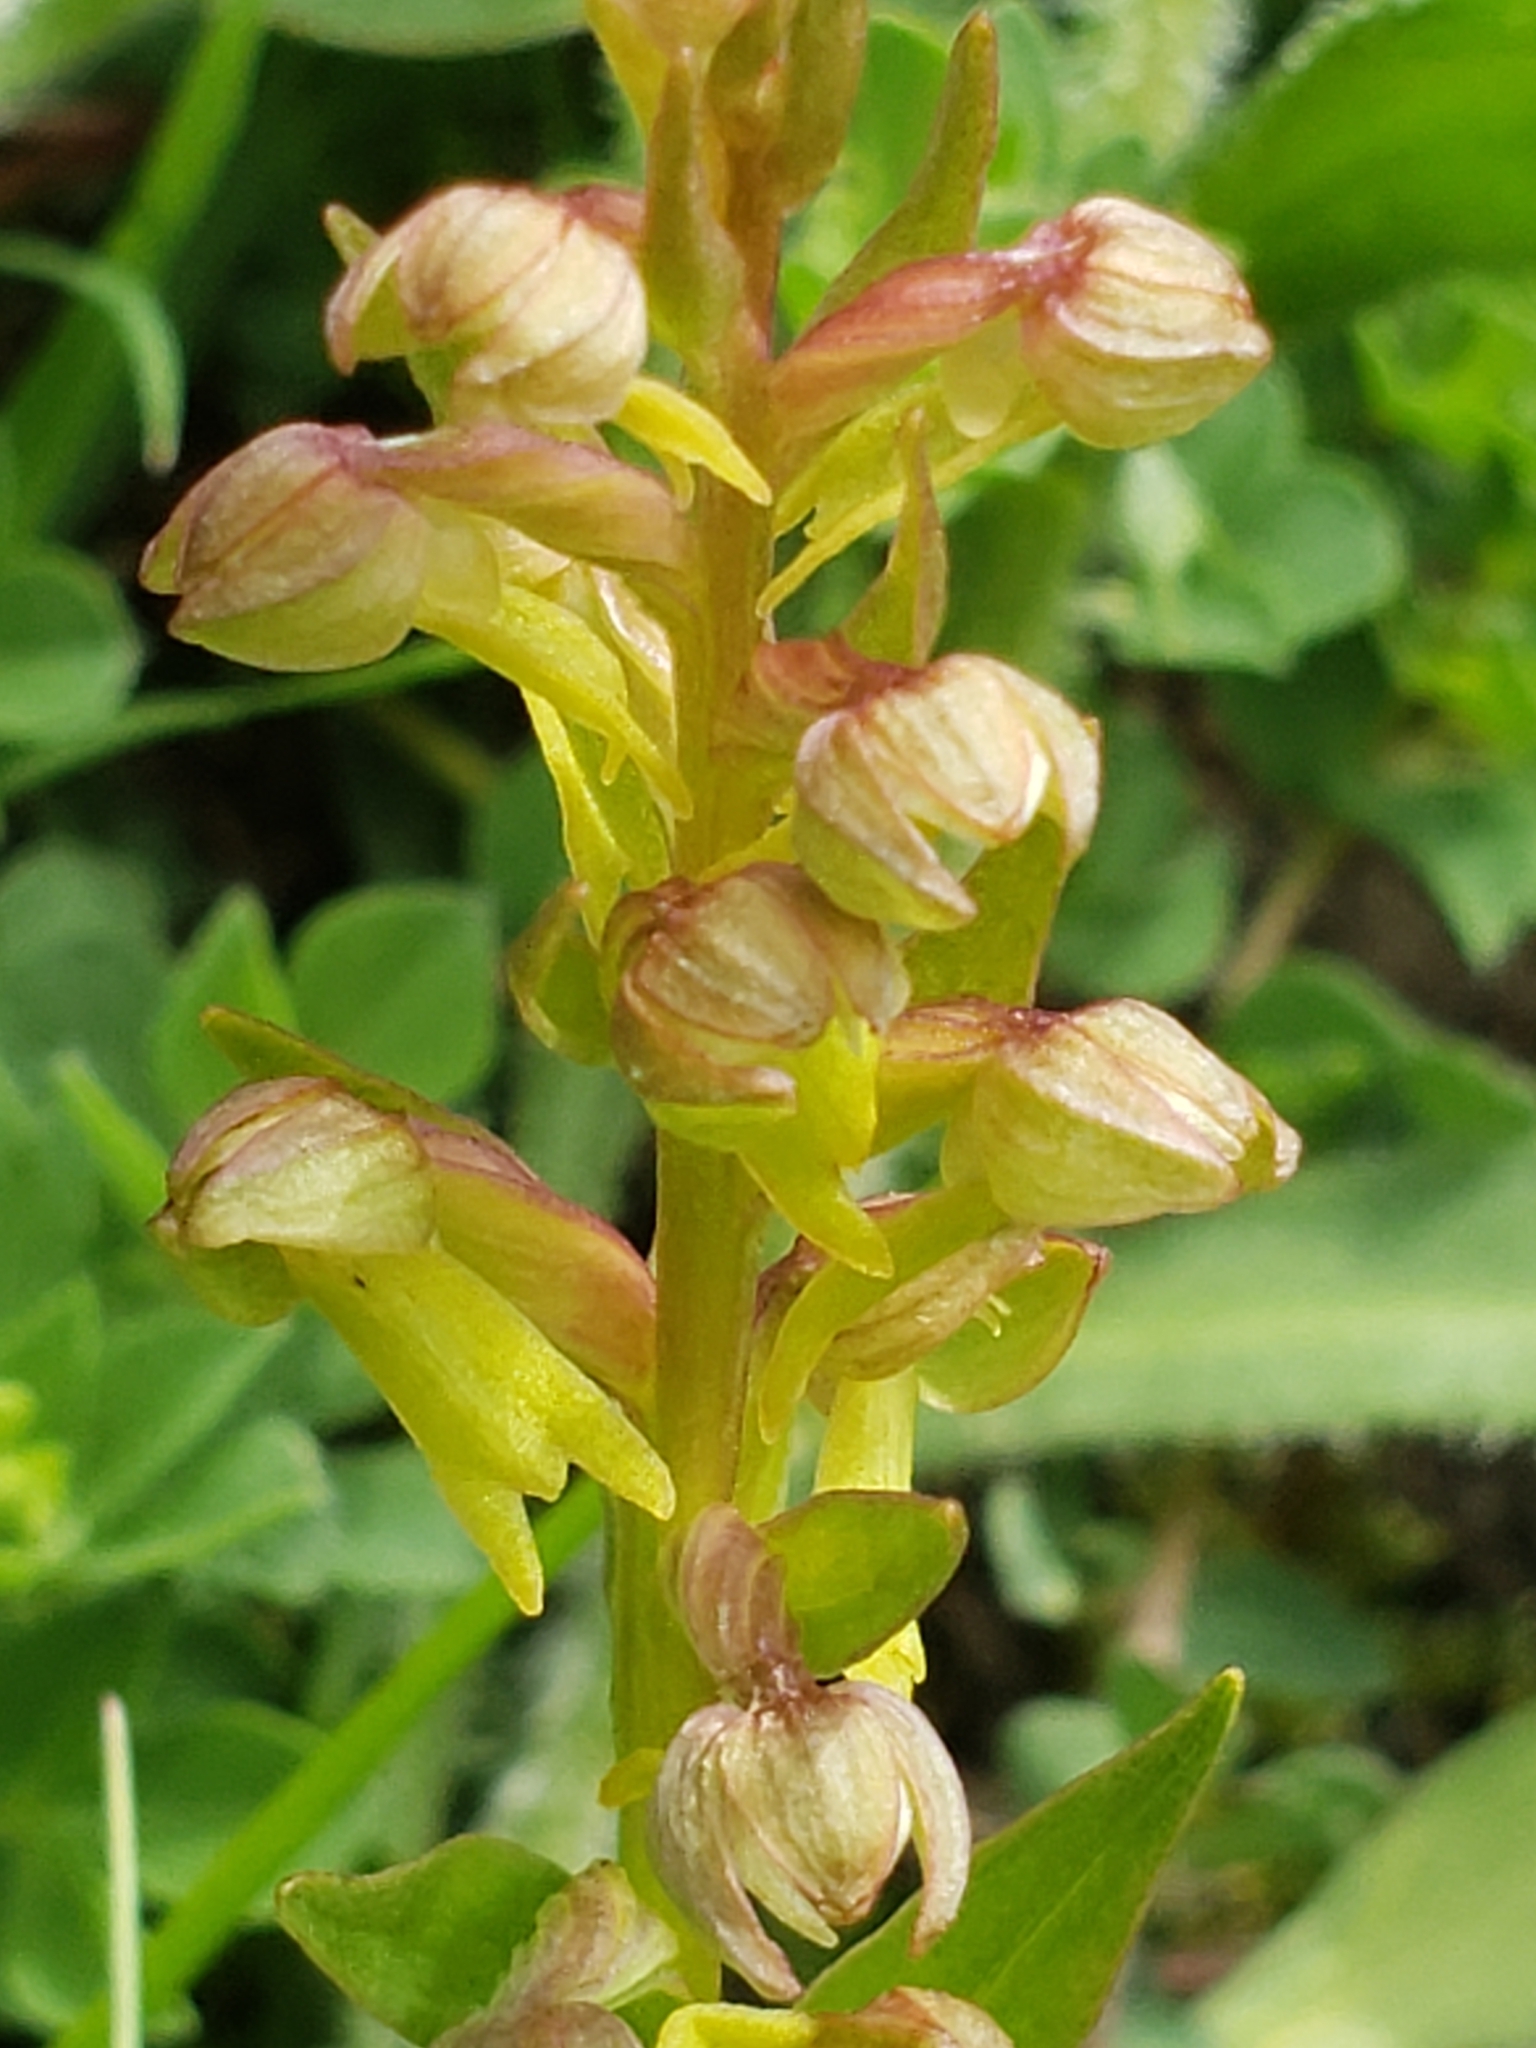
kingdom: Plantae
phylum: Tracheophyta
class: Liliopsida
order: Asparagales
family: Orchidaceae
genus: Dactylorhiza
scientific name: Dactylorhiza viridis
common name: Longbract frog orchid
